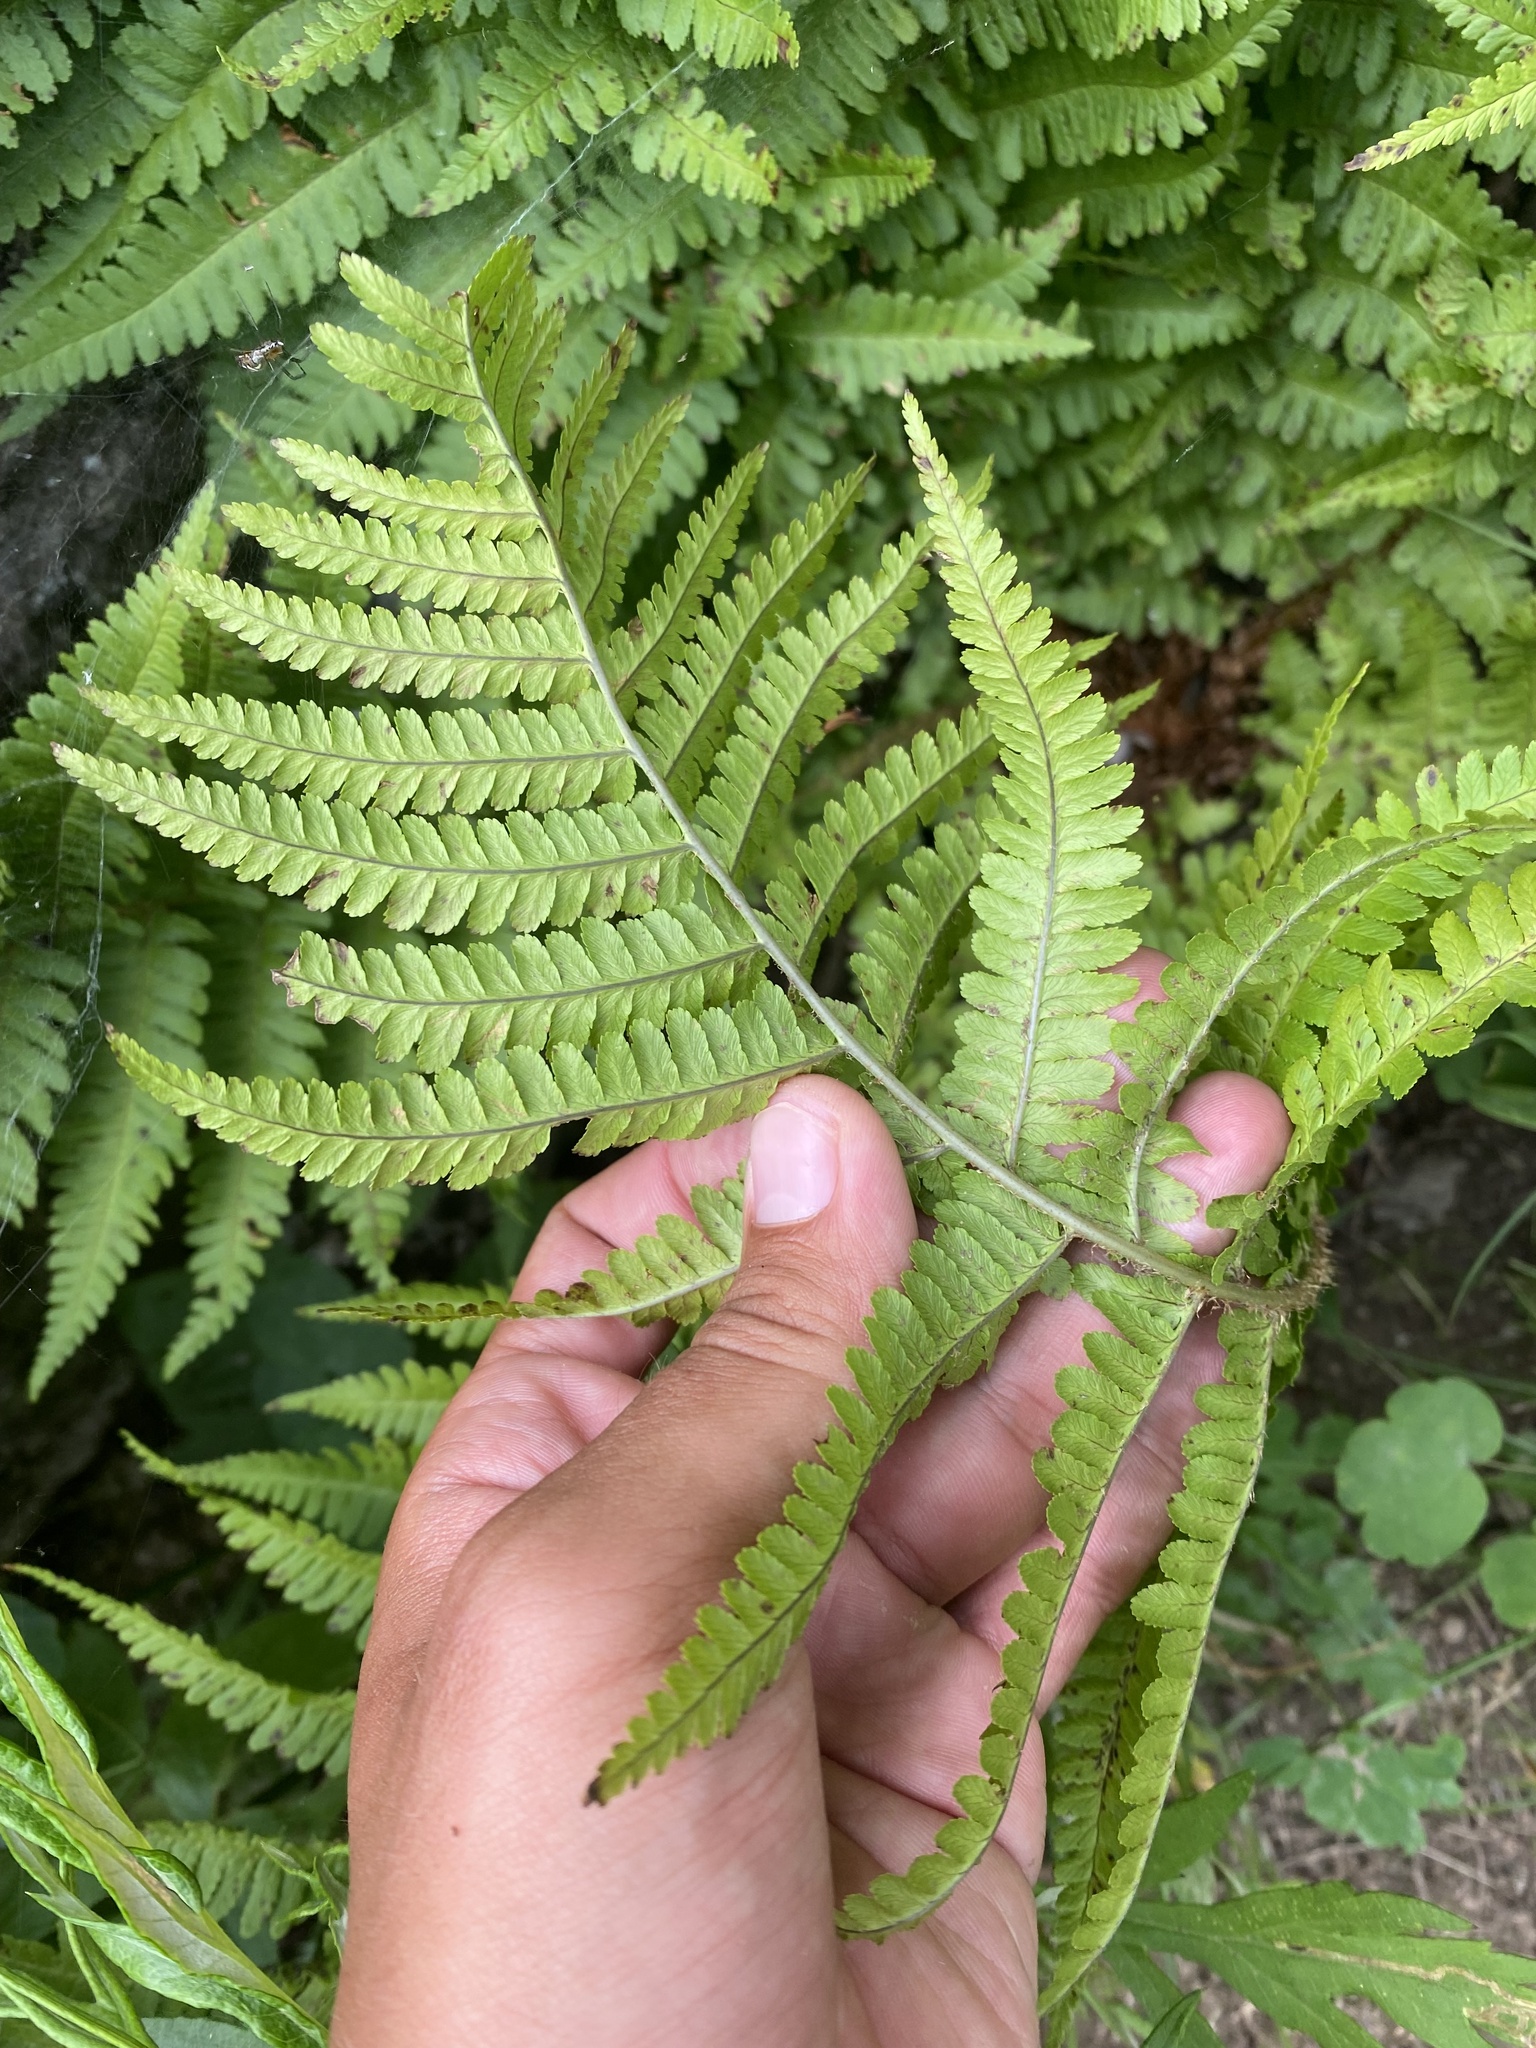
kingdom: Plantae
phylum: Tracheophyta
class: Polypodiopsida
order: Polypodiales
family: Dryopteridaceae
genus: Dryopteris
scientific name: Dryopteris sichotensis
